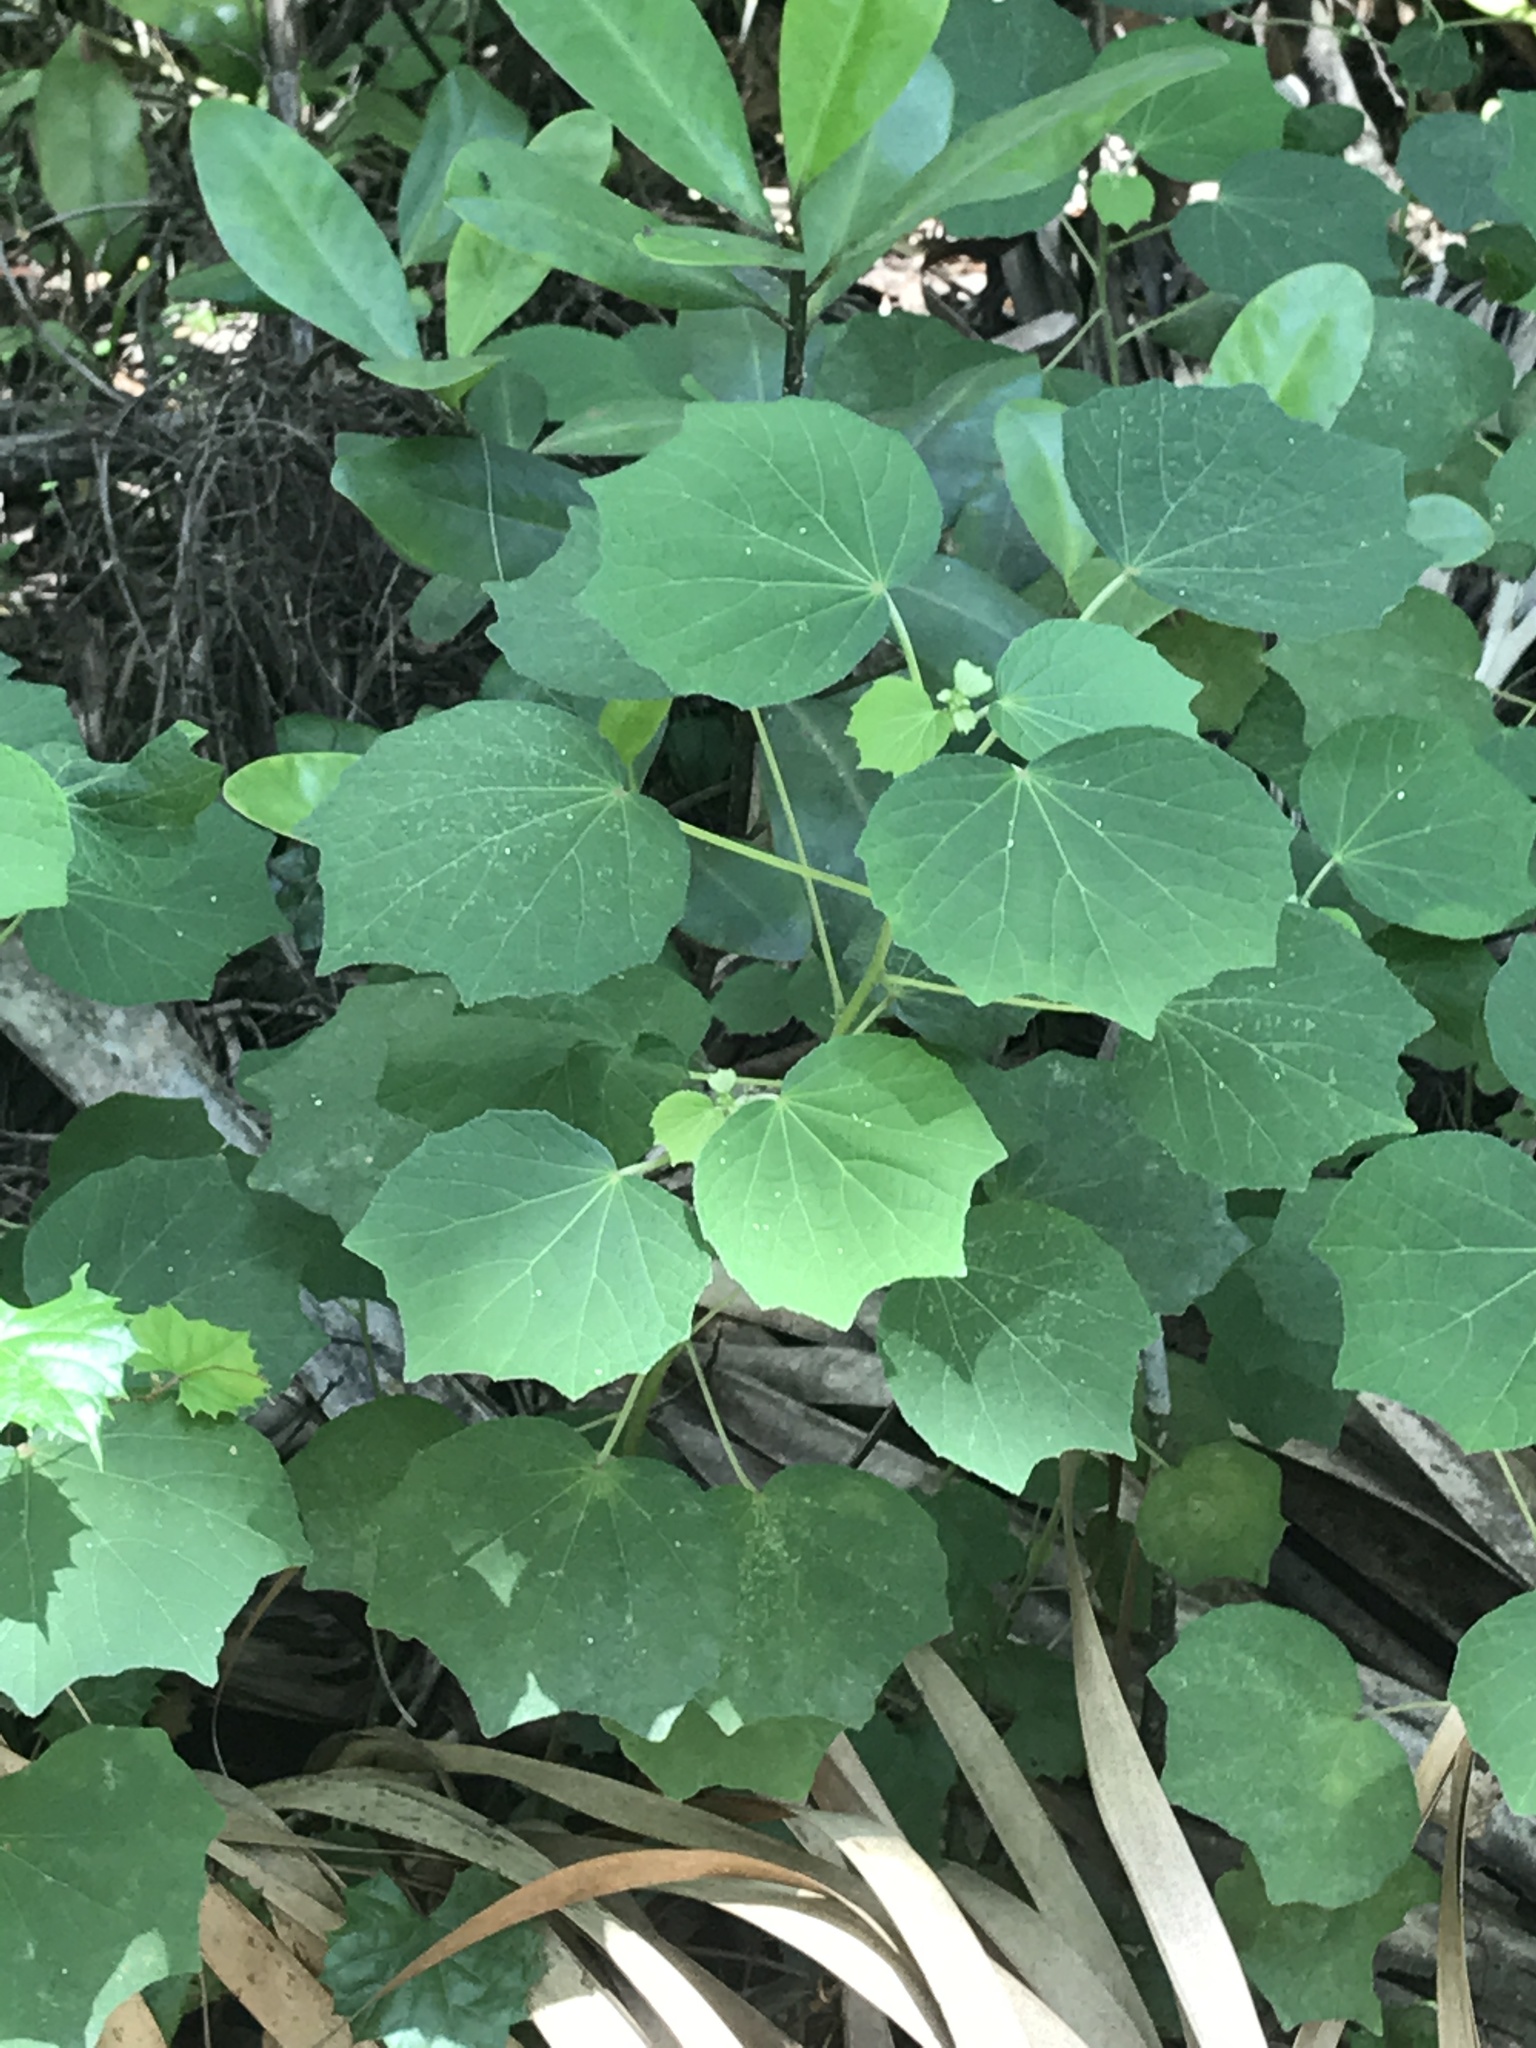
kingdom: Plantae
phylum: Tracheophyta
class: Magnoliopsida
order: Malvales
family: Malvaceae
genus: Urena
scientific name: Urena lobata
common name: Caesarweed
